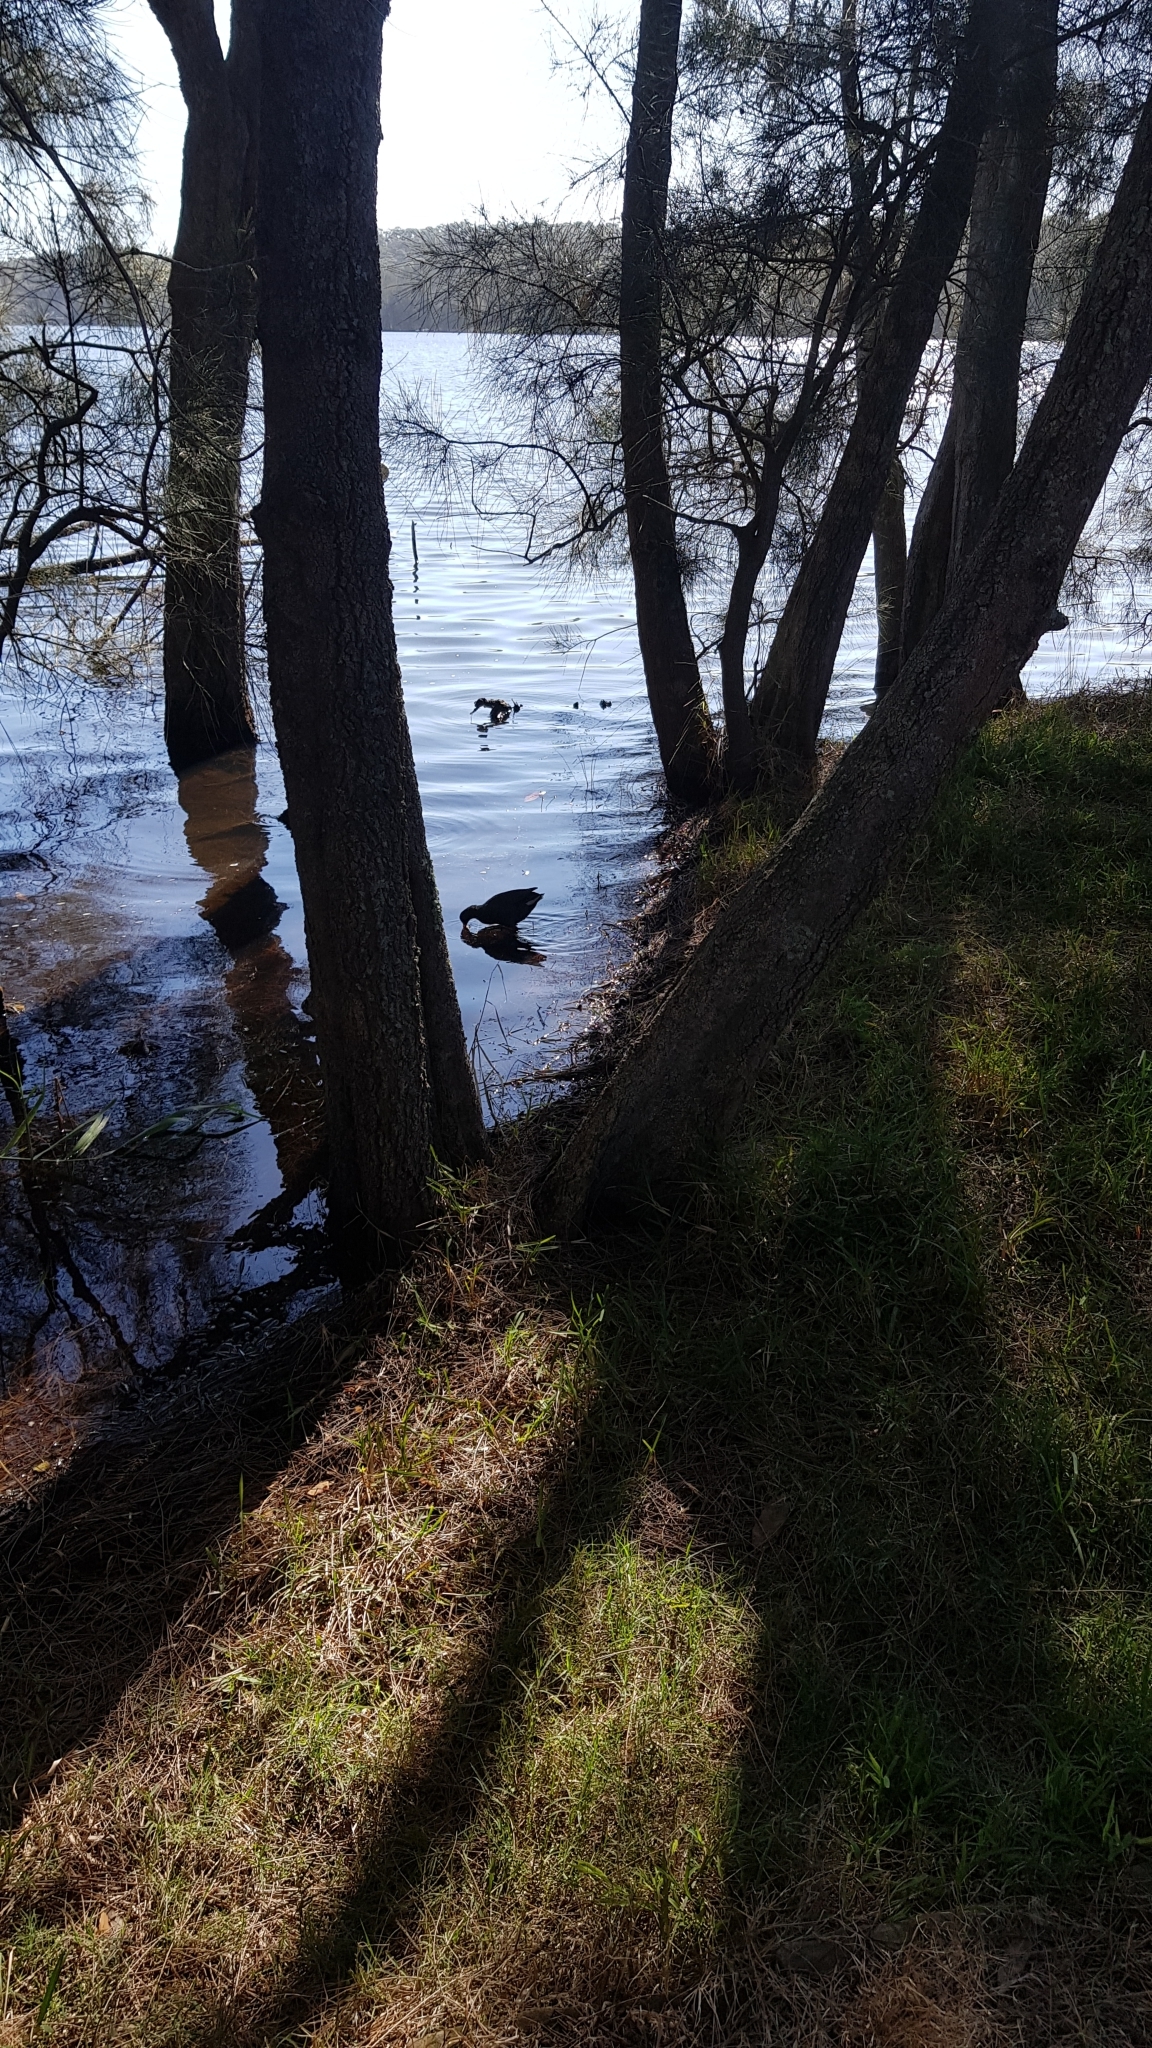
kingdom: Animalia
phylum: Chordata
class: Aves
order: Gruiformes
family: Rallidae
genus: Gallinula
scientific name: Gallinula tenebrosa
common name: Dusky moorhen
